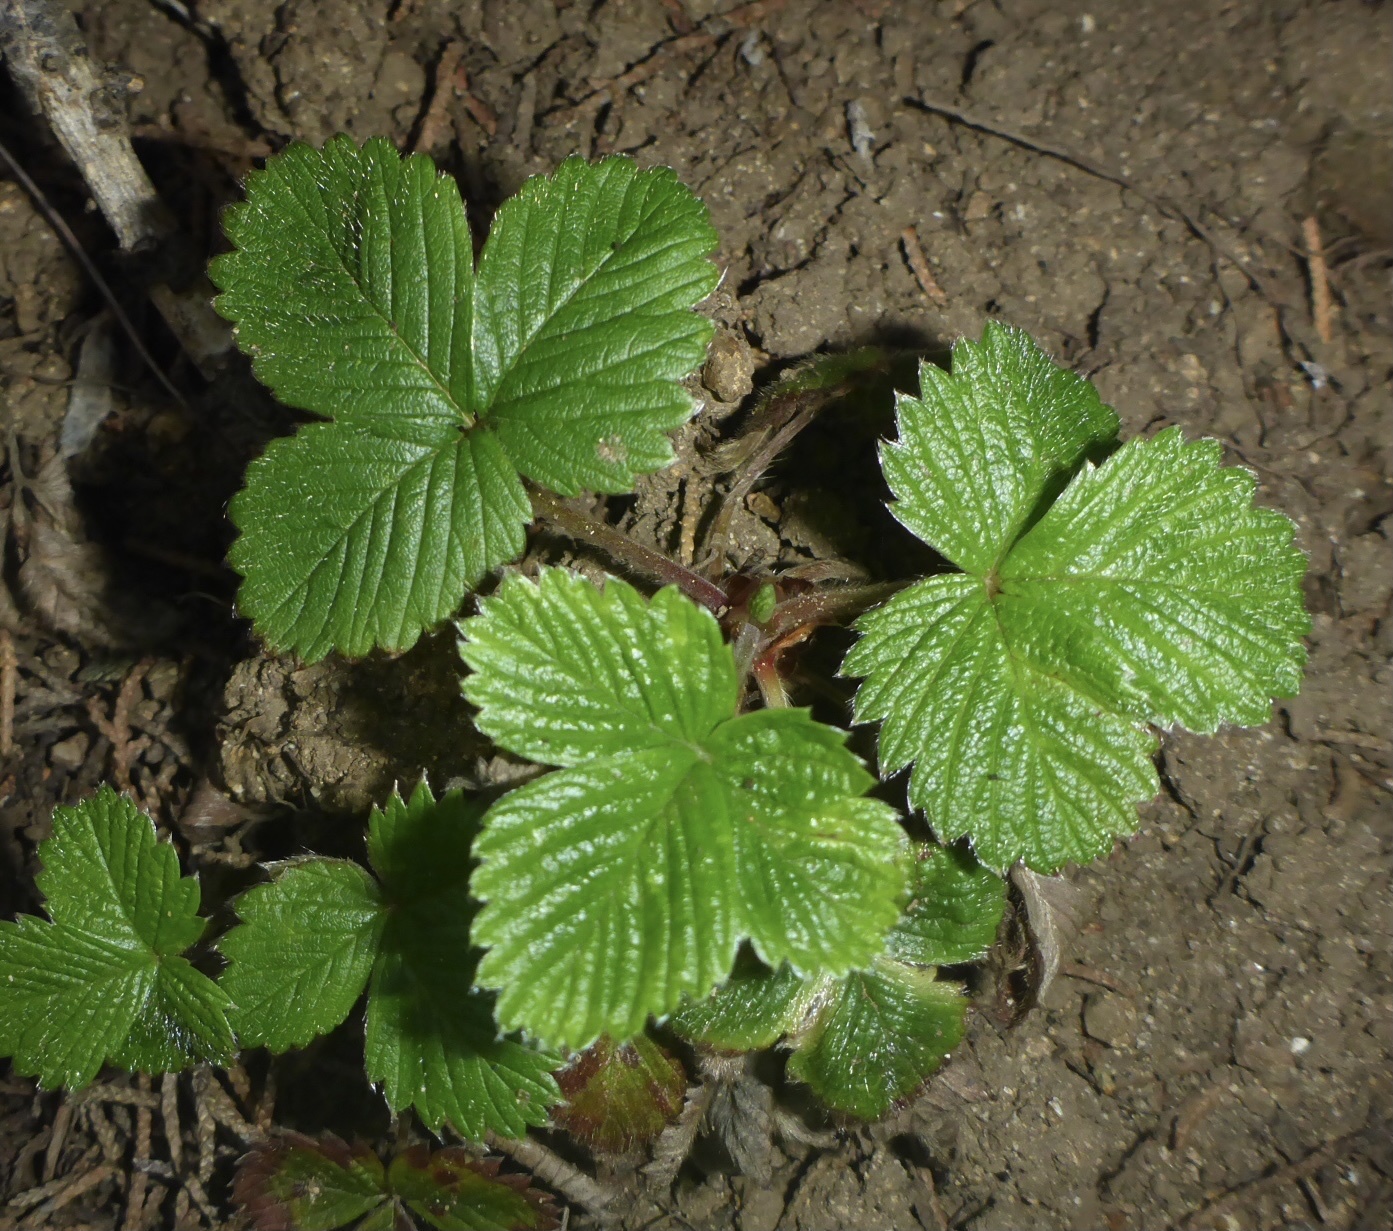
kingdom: Plantae
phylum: Tracheophyta
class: Magnoliopsida
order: Rosales
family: Rosaceae
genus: Fragaria
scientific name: Fragaria vesca
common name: Wild strawberry
